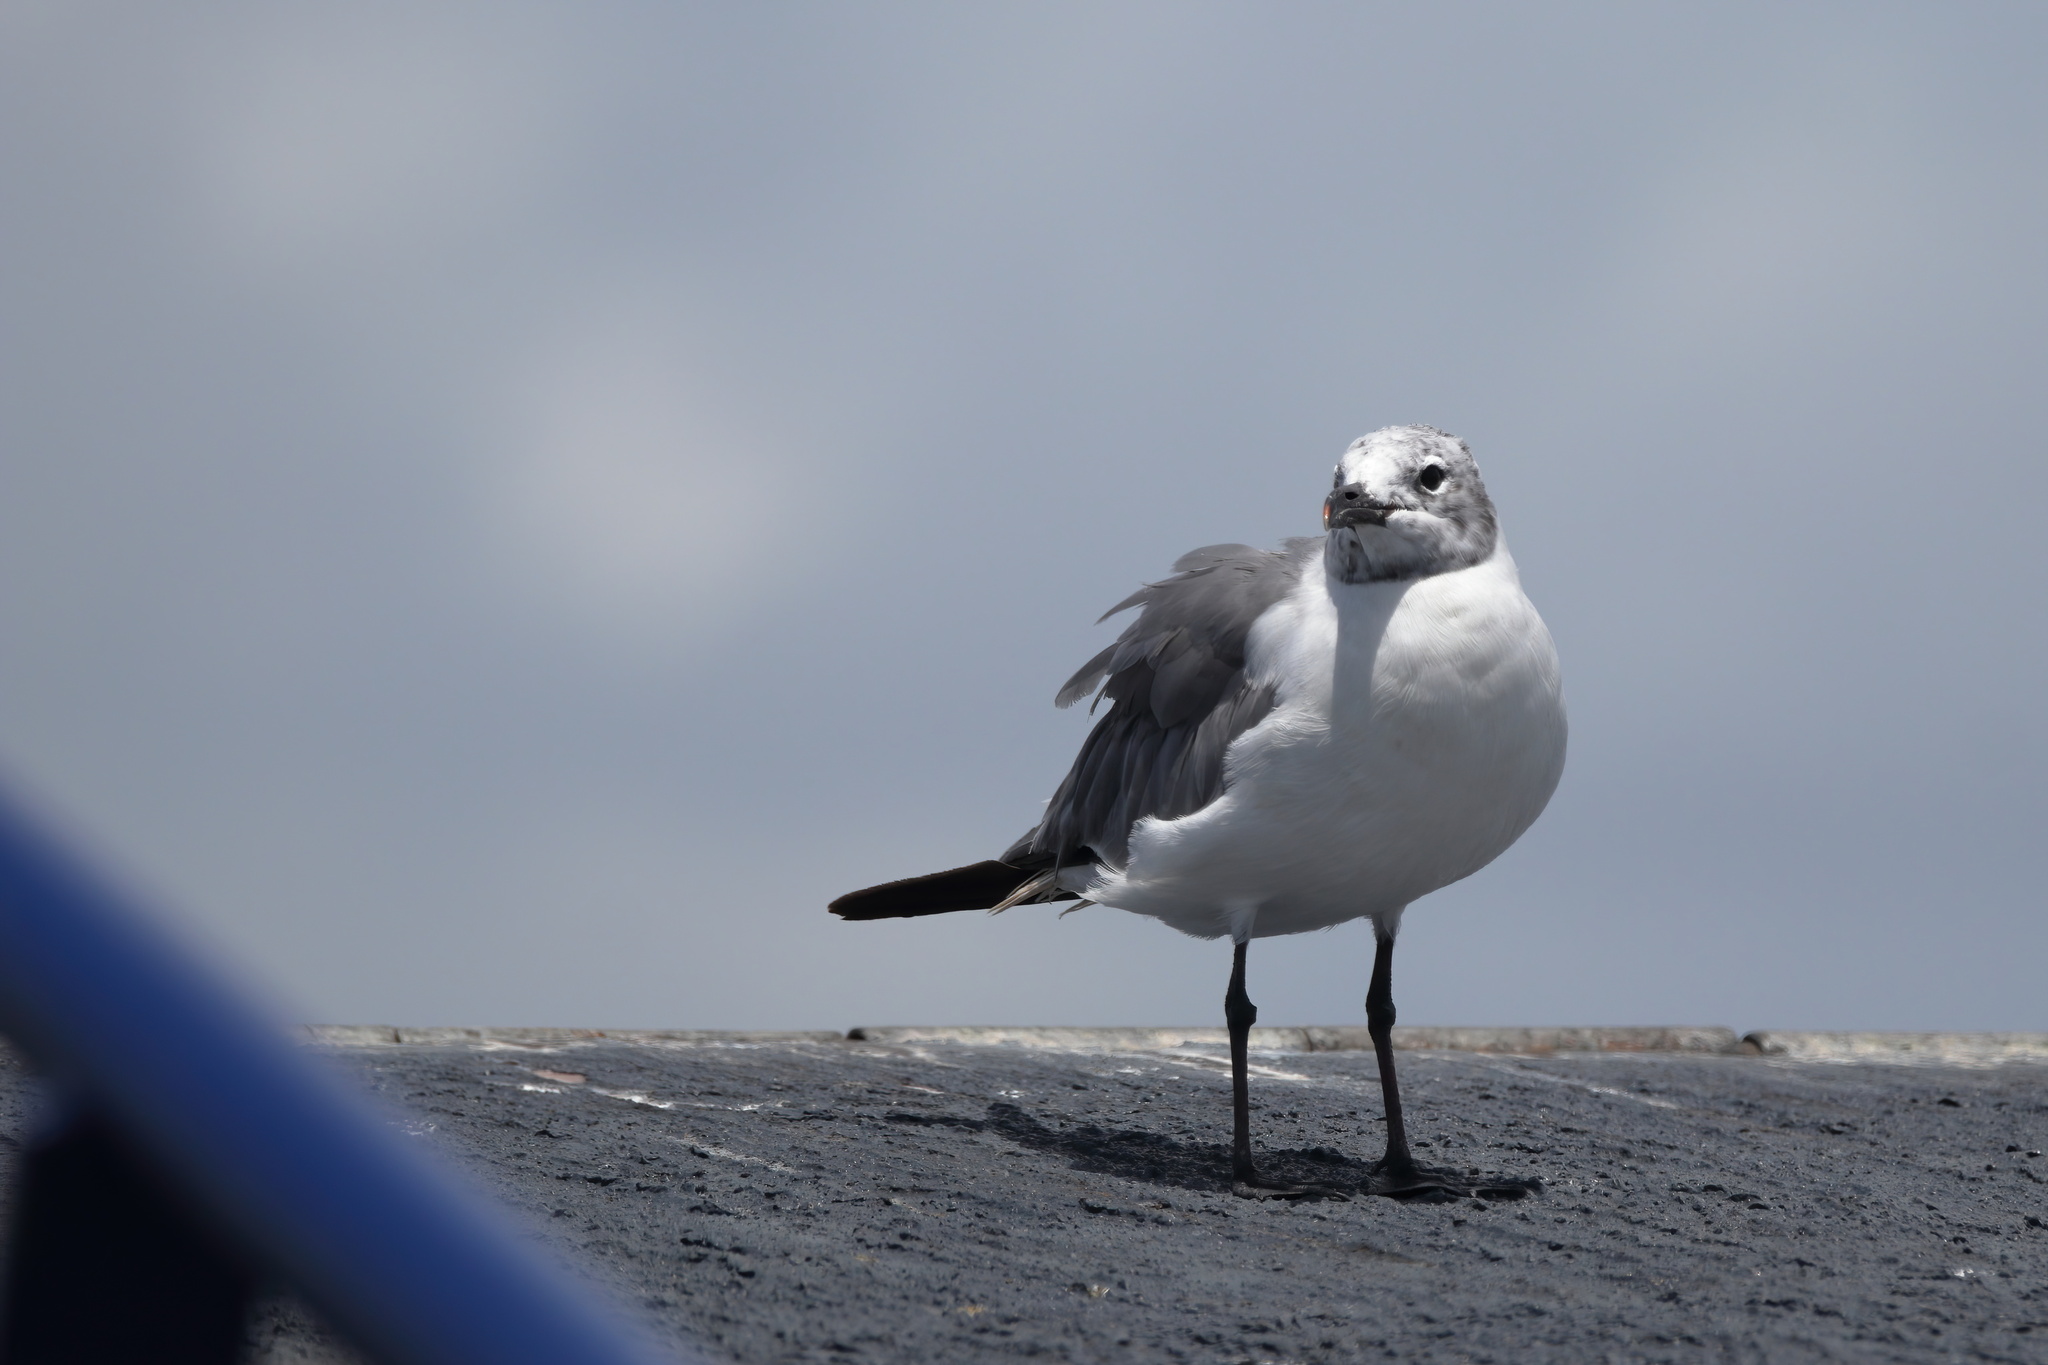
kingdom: Animalia
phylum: Chordata
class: Aves
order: Charadriiformes
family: Laridae
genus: Leucophaeus
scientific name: Leucophaeus atricilla
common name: Laughing gull
